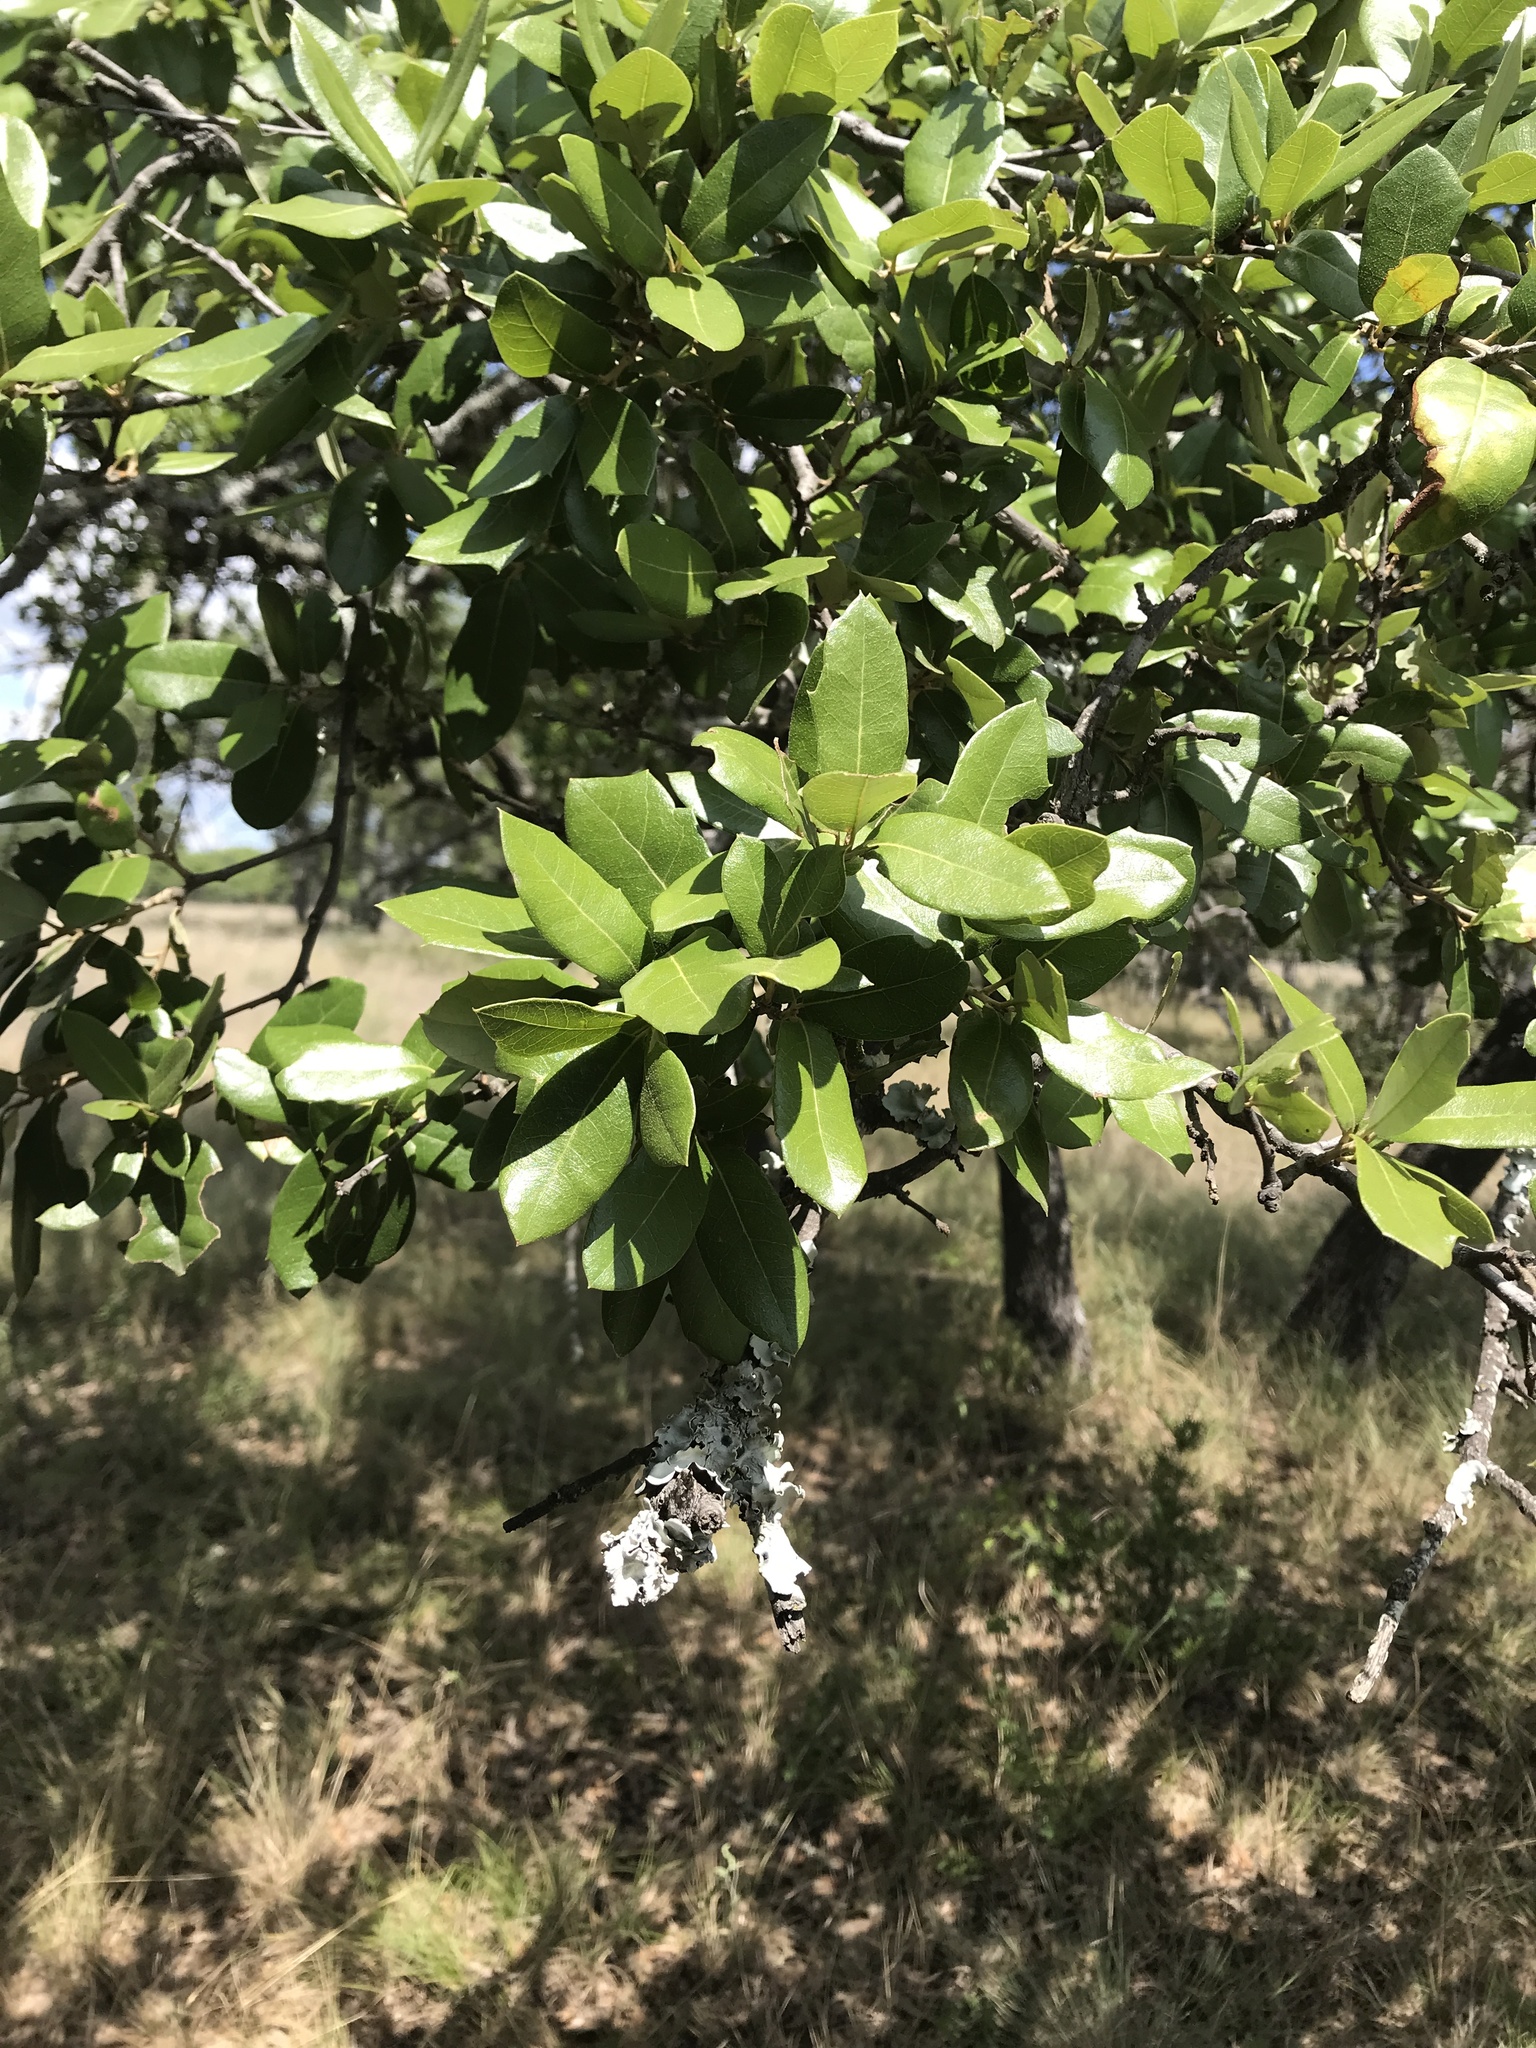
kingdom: Plantae
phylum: Tracheophyta
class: Magnoliopsida
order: Fagales
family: Fagaceae
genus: Quercus
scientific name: Quercus fusiformis
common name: Texas live oak
